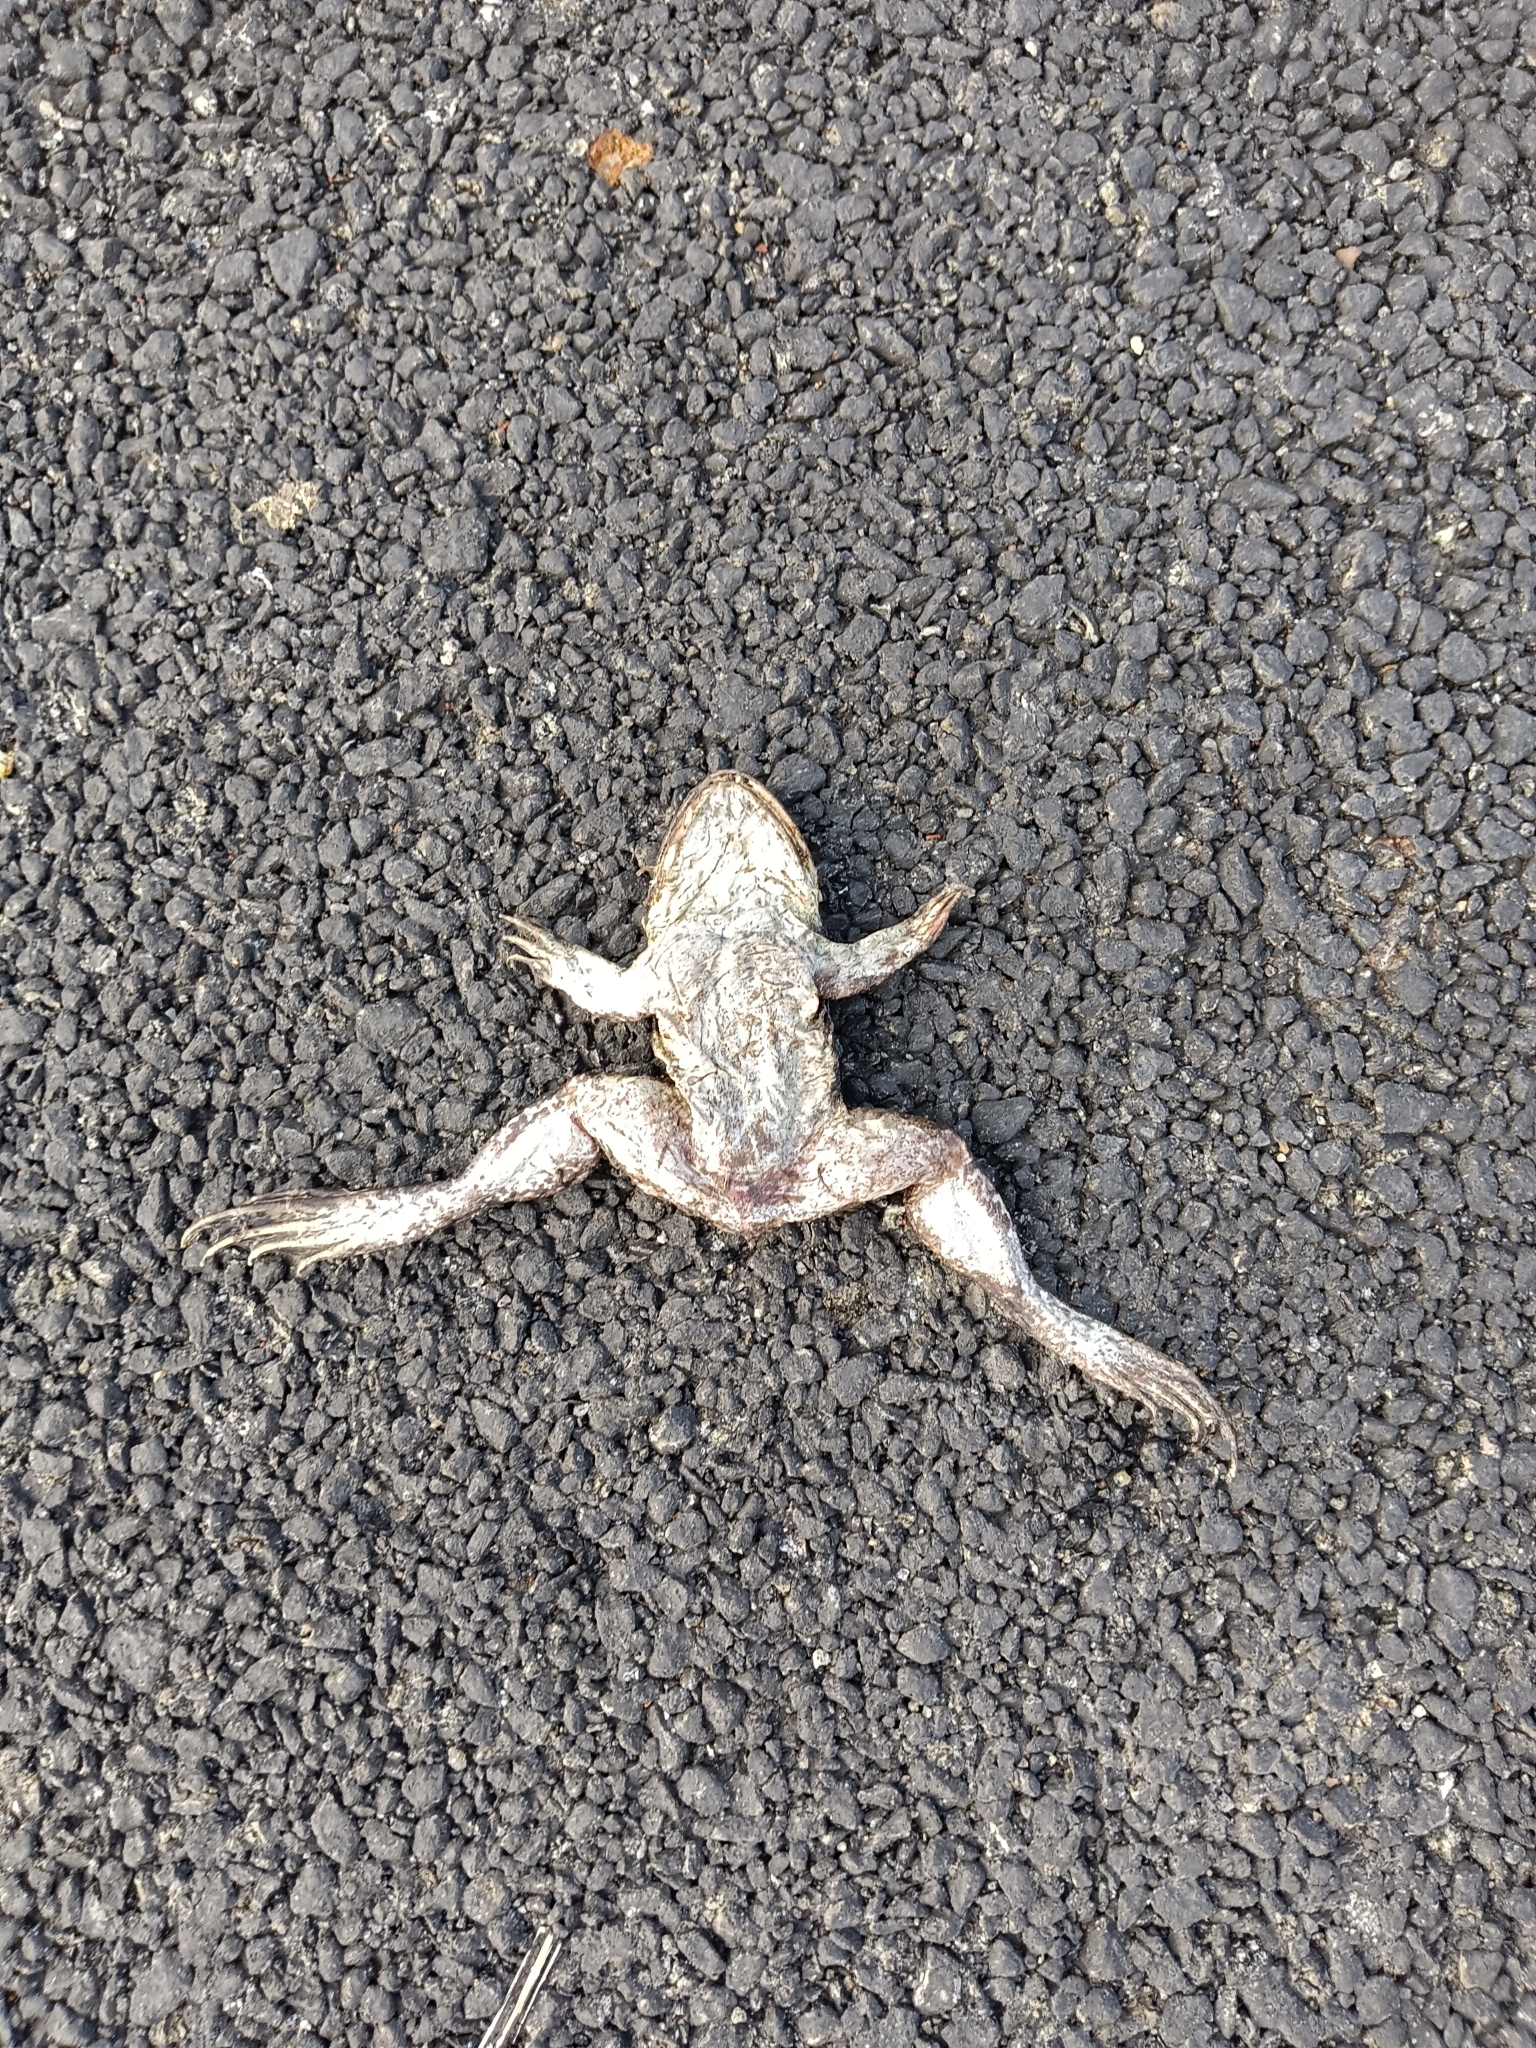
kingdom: Animalia
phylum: Chordata
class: Amphibia
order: Anura
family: Dicroglossidae
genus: Hoplobatrachus
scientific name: Hoplobatrachus tigerinus
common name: Indian bullfrog
